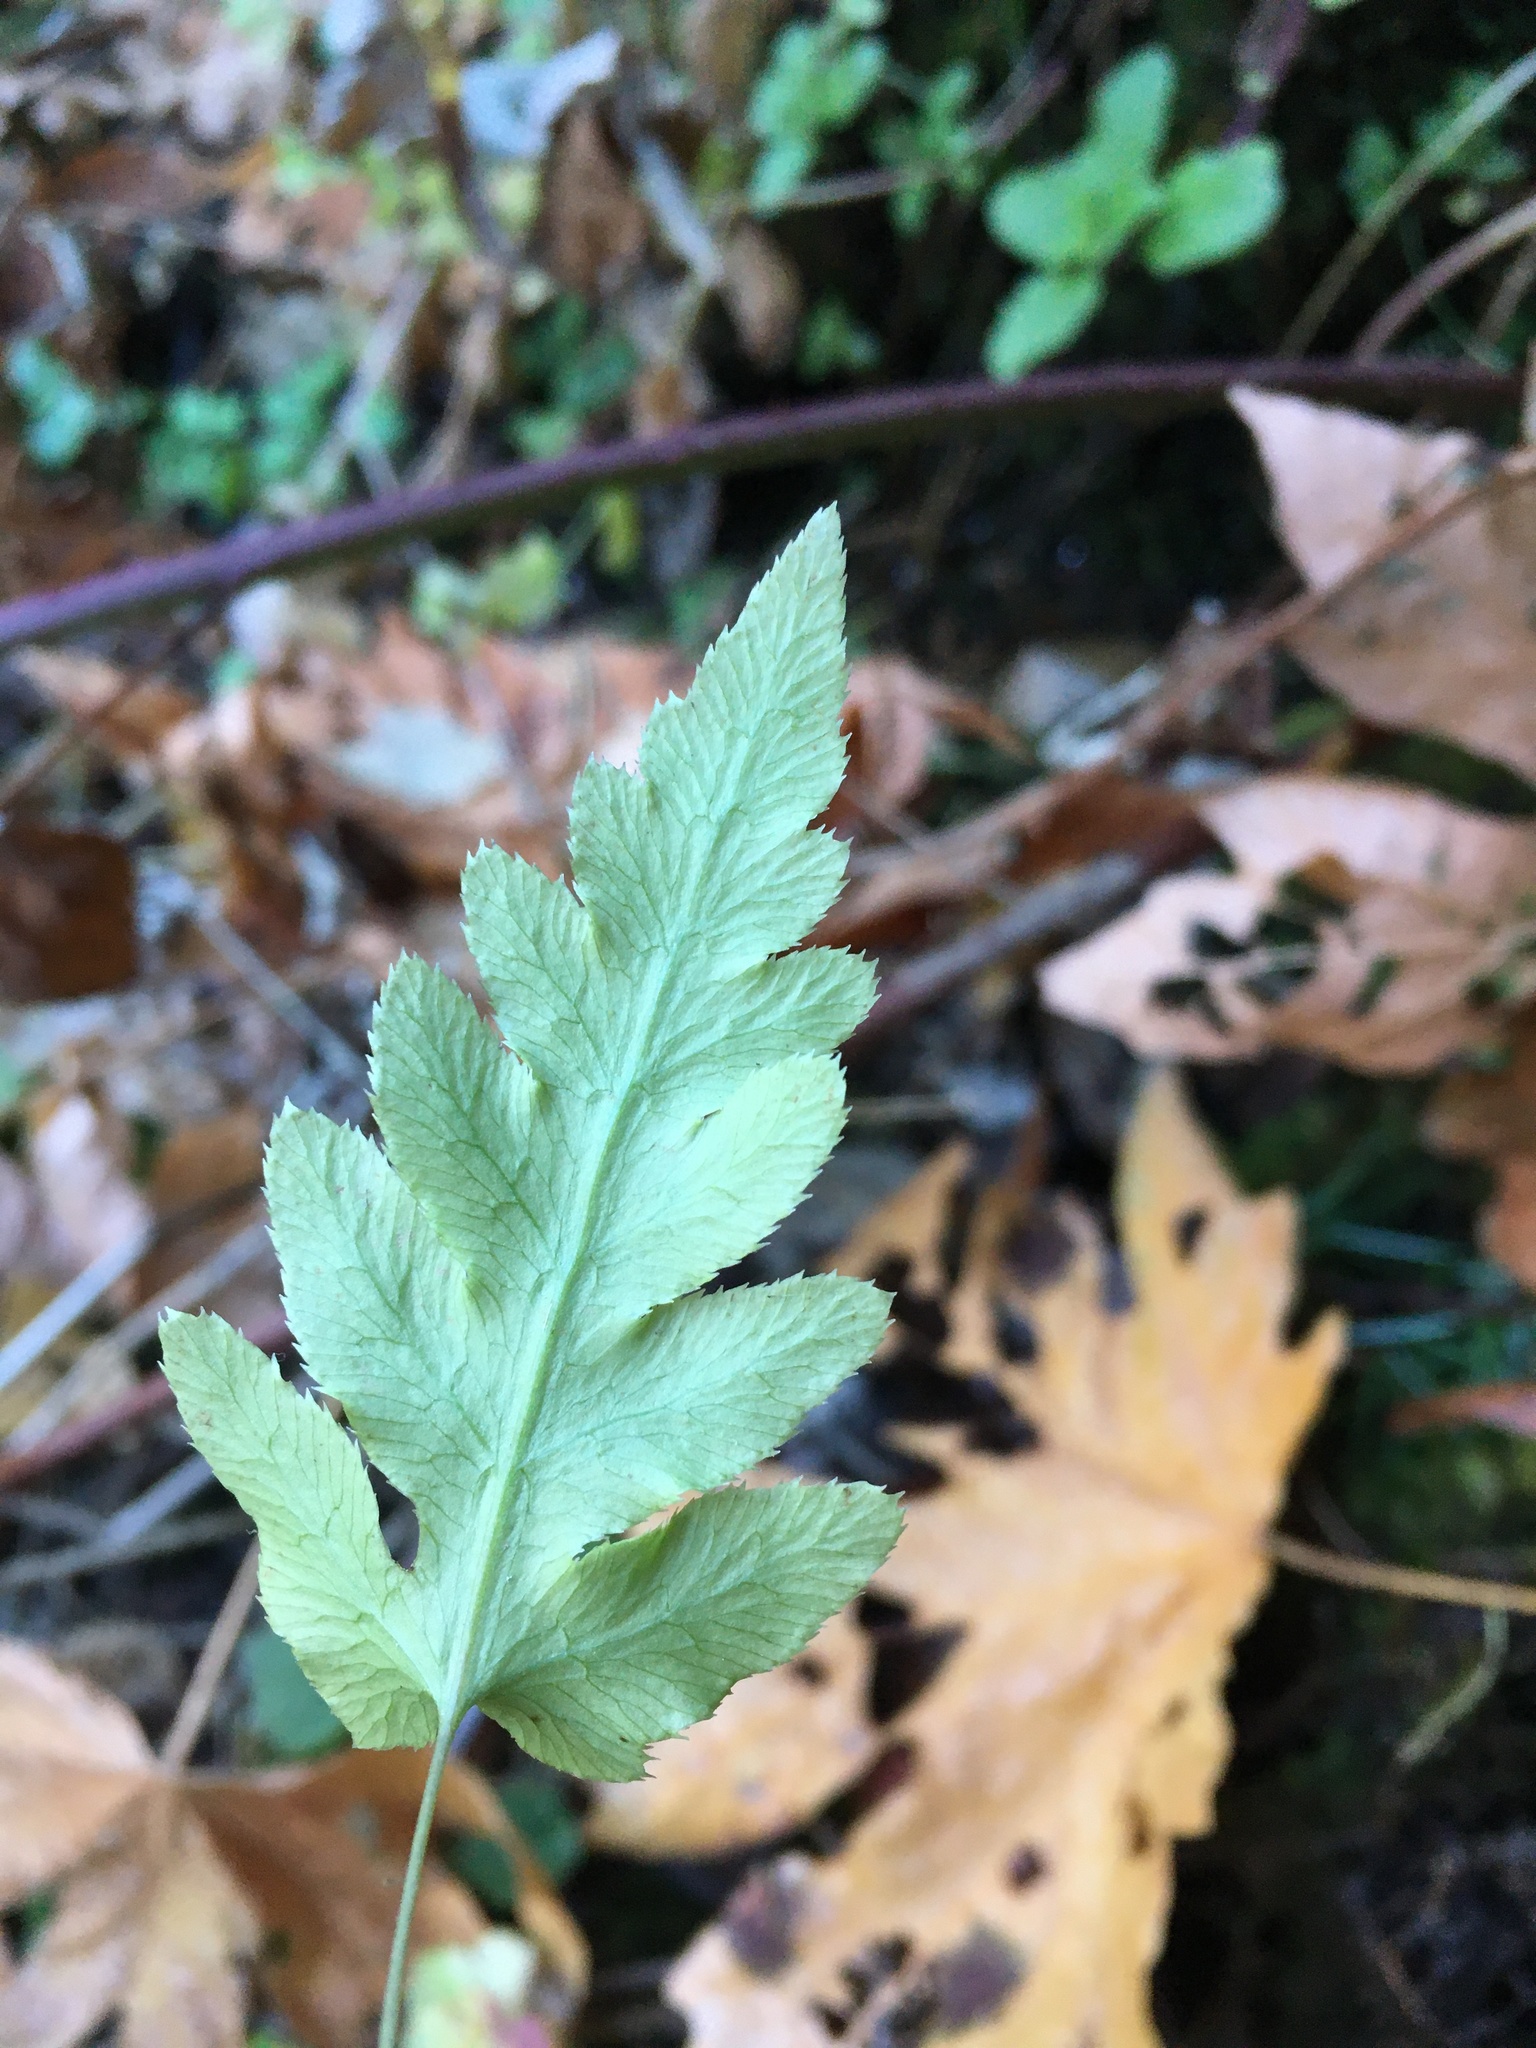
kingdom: Plantae
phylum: Tracheophyta
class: Polypodiopsida
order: Polypodiales
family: Blechnaceae
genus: Woodwardia
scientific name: Woodwardia fimbriata
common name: Giant chain fern
